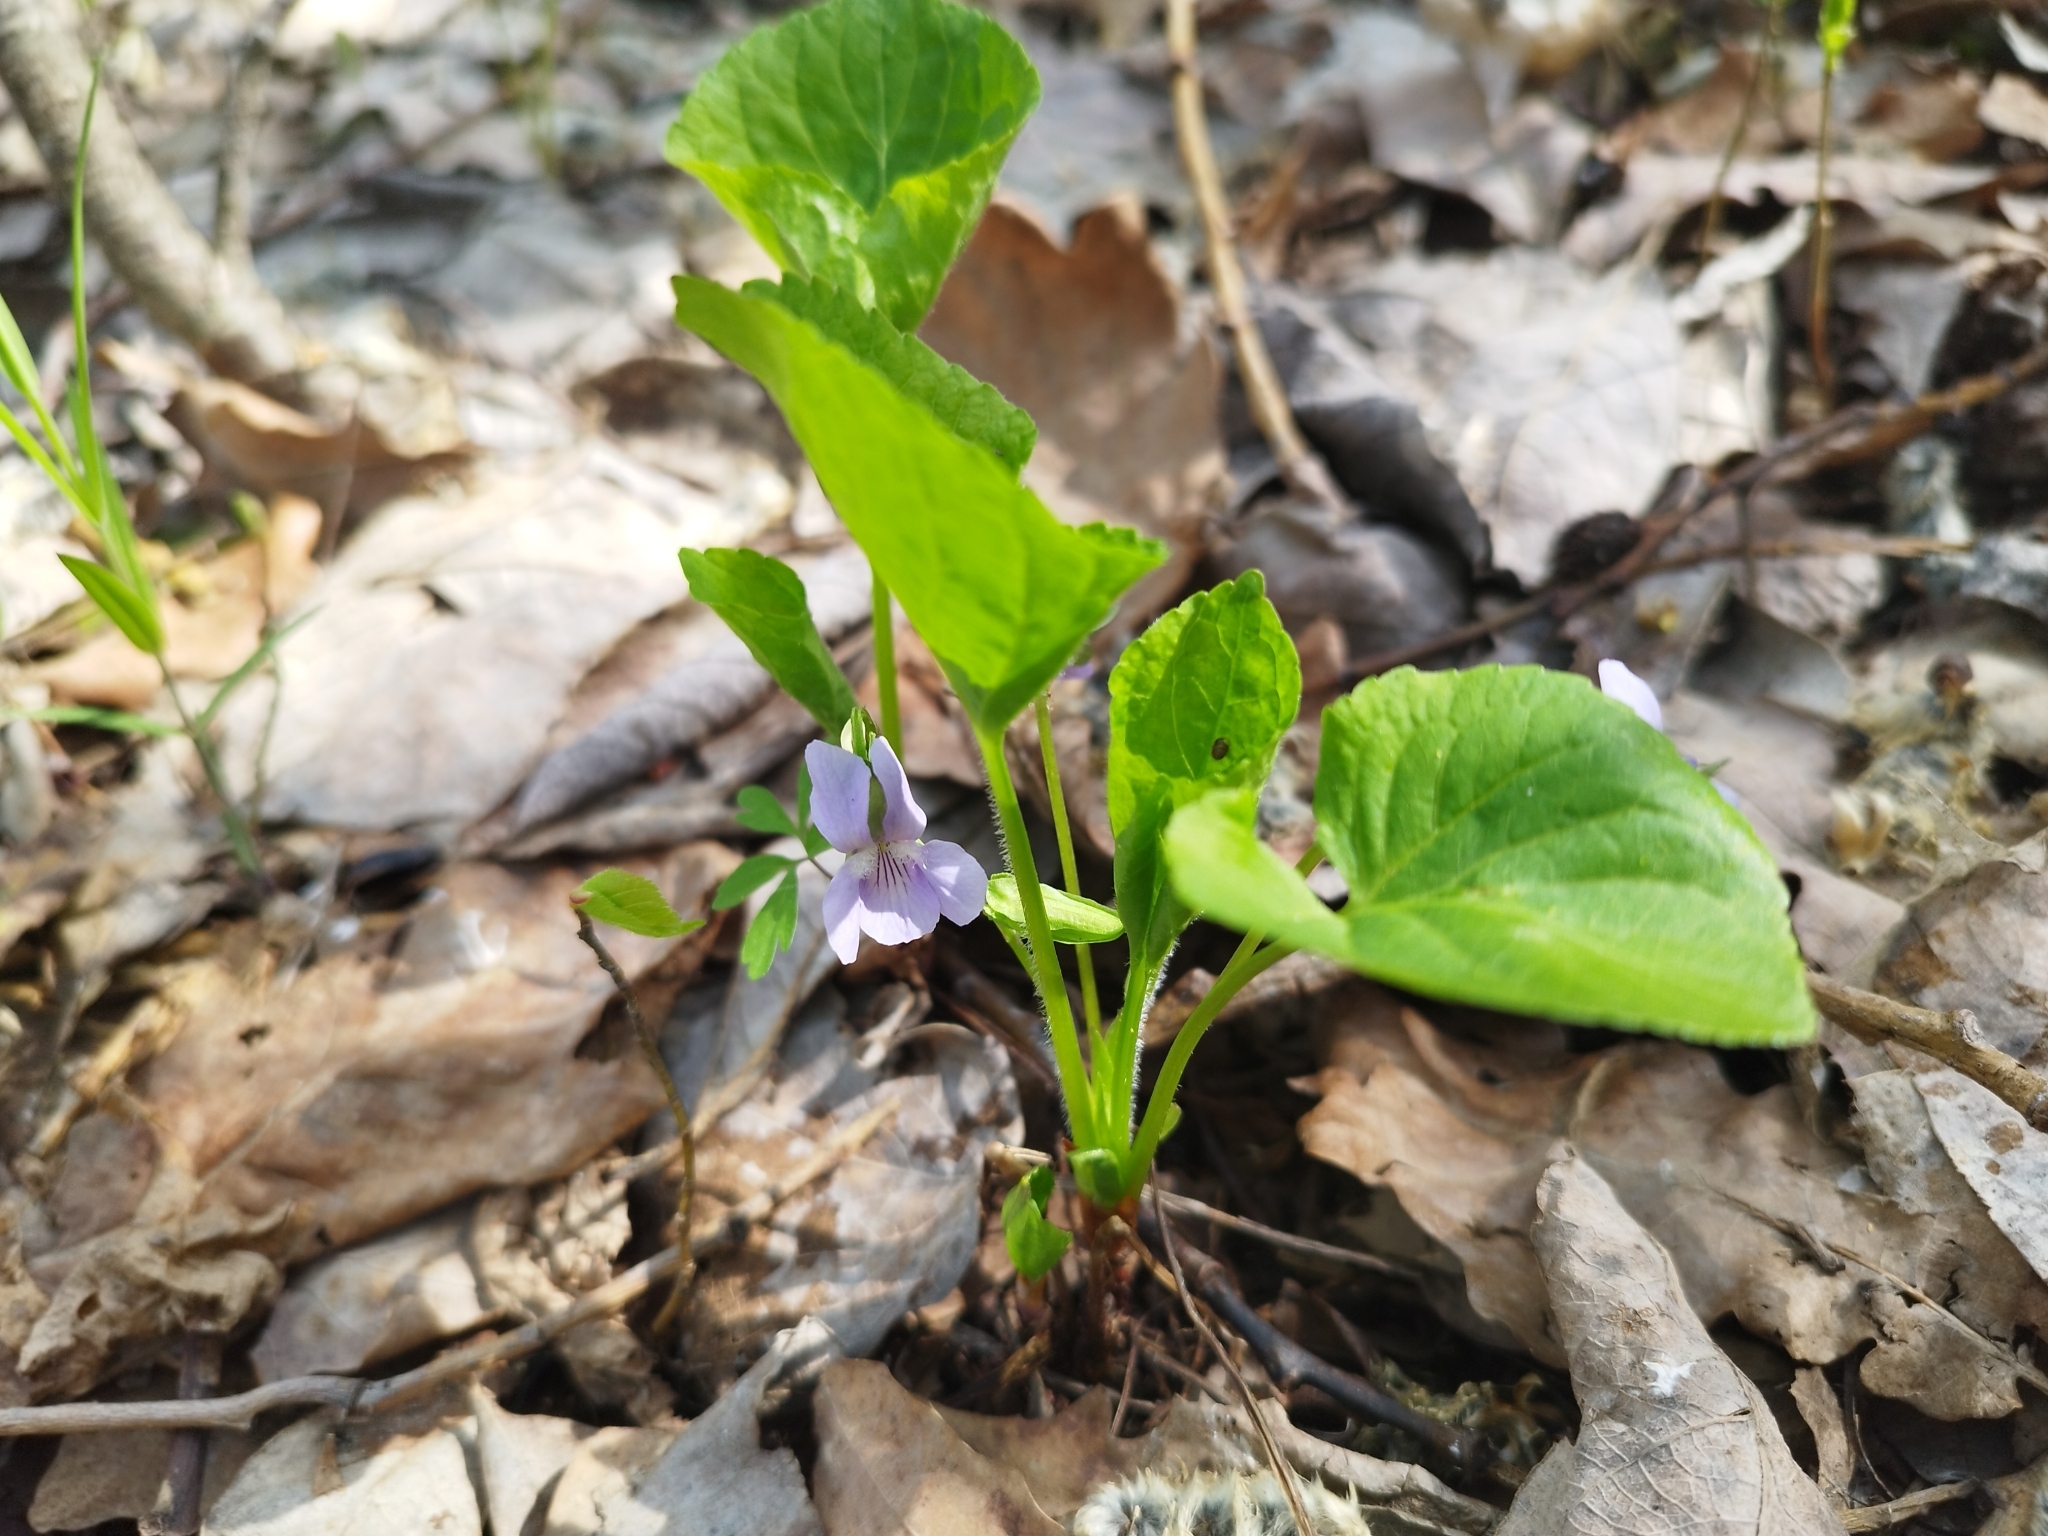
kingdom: Plantae
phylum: Tracheophyta
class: Magnoliopsida
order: Malpighiales
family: Violaceae
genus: Viola
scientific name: Viola mirabilis
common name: Wonder violet
